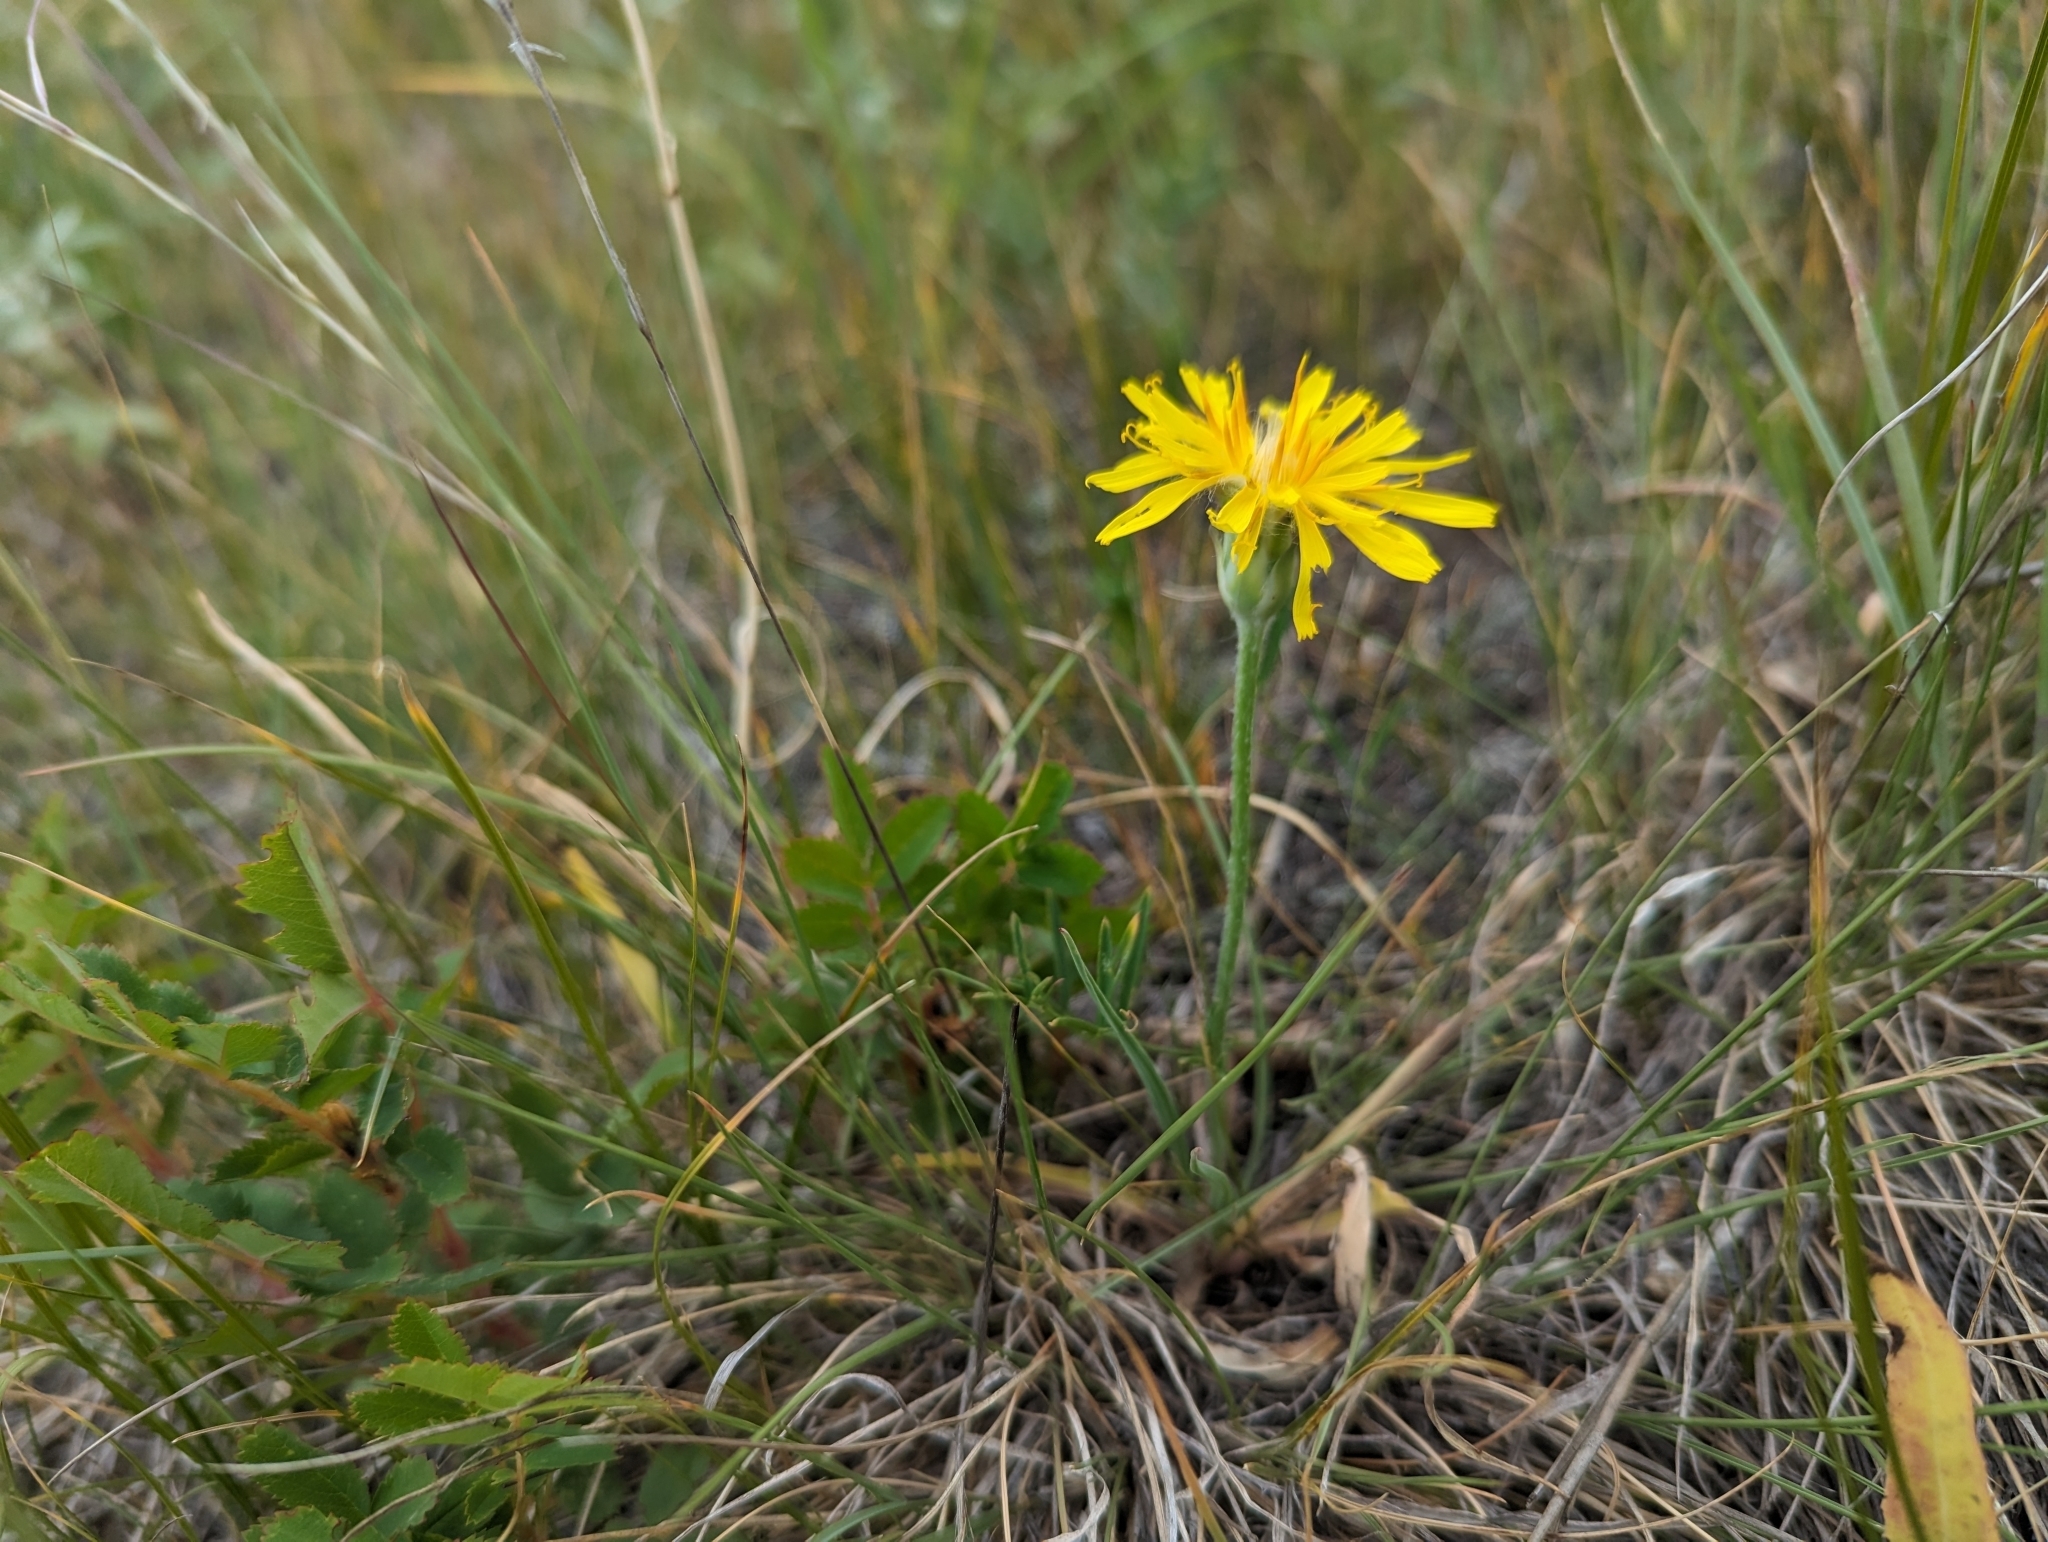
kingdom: Plantae
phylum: Tracheophyta
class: Magnoliopsida
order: Asterales
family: Asteraceae
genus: Agoseris
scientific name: Agoseris glauca
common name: Prairie agoseris
